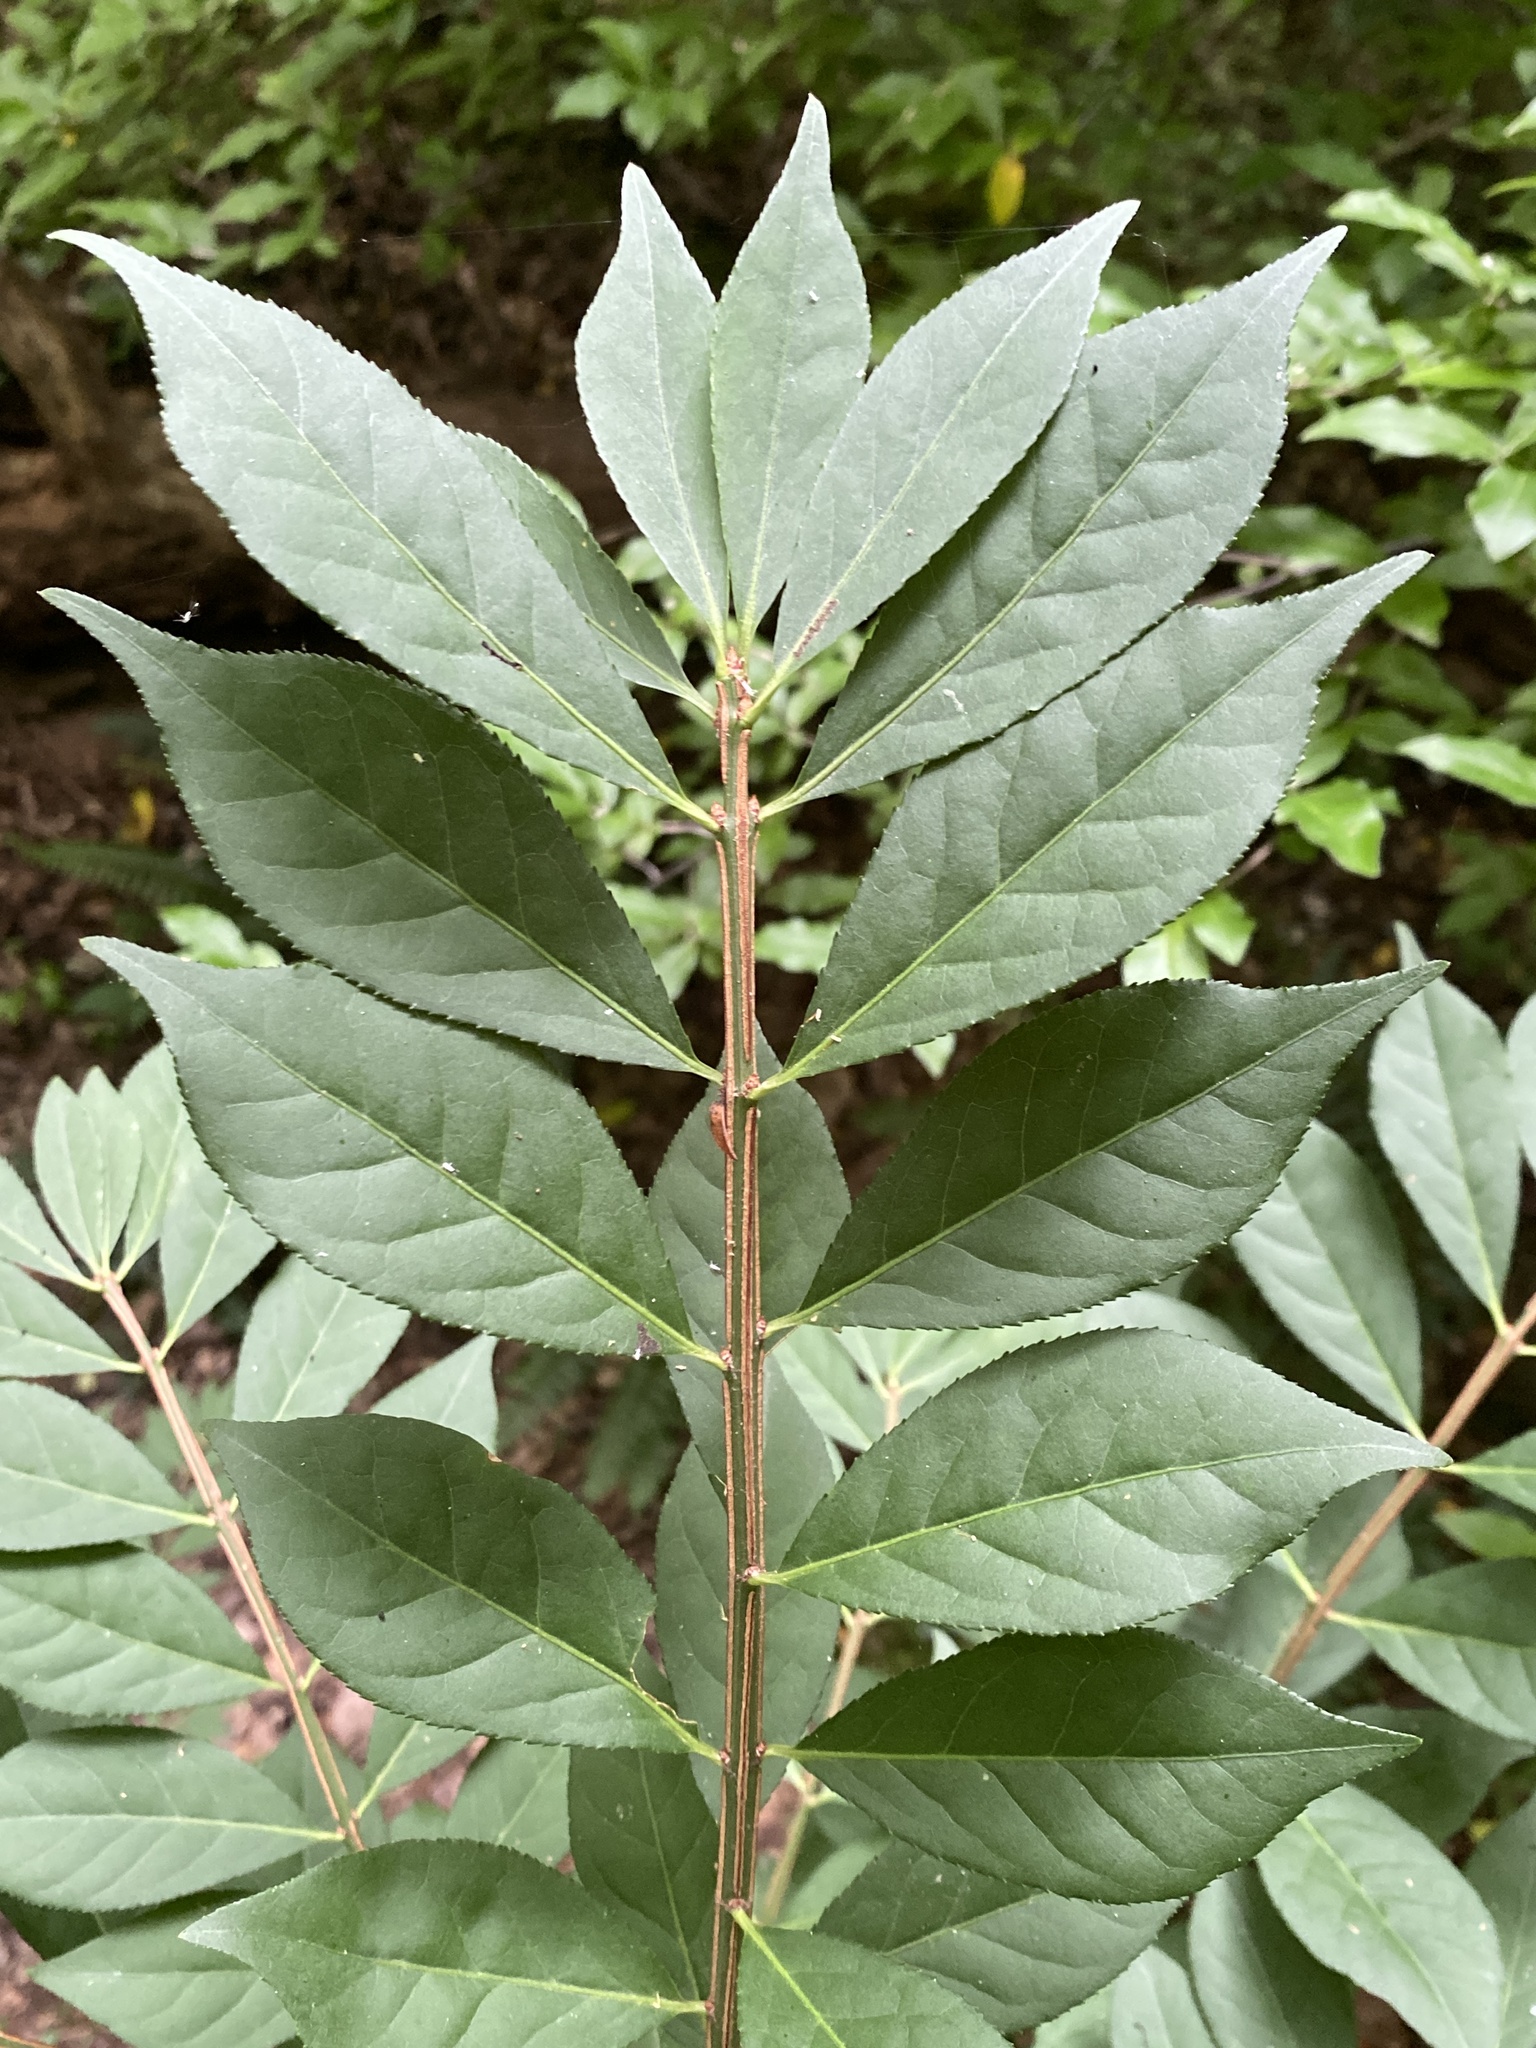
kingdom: Plantae
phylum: Tracheophyta
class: Magnoliopsida
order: Celastrales
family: Celastraceae
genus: Euonymus
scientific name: Euonymus alatus
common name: Winged euonymus
